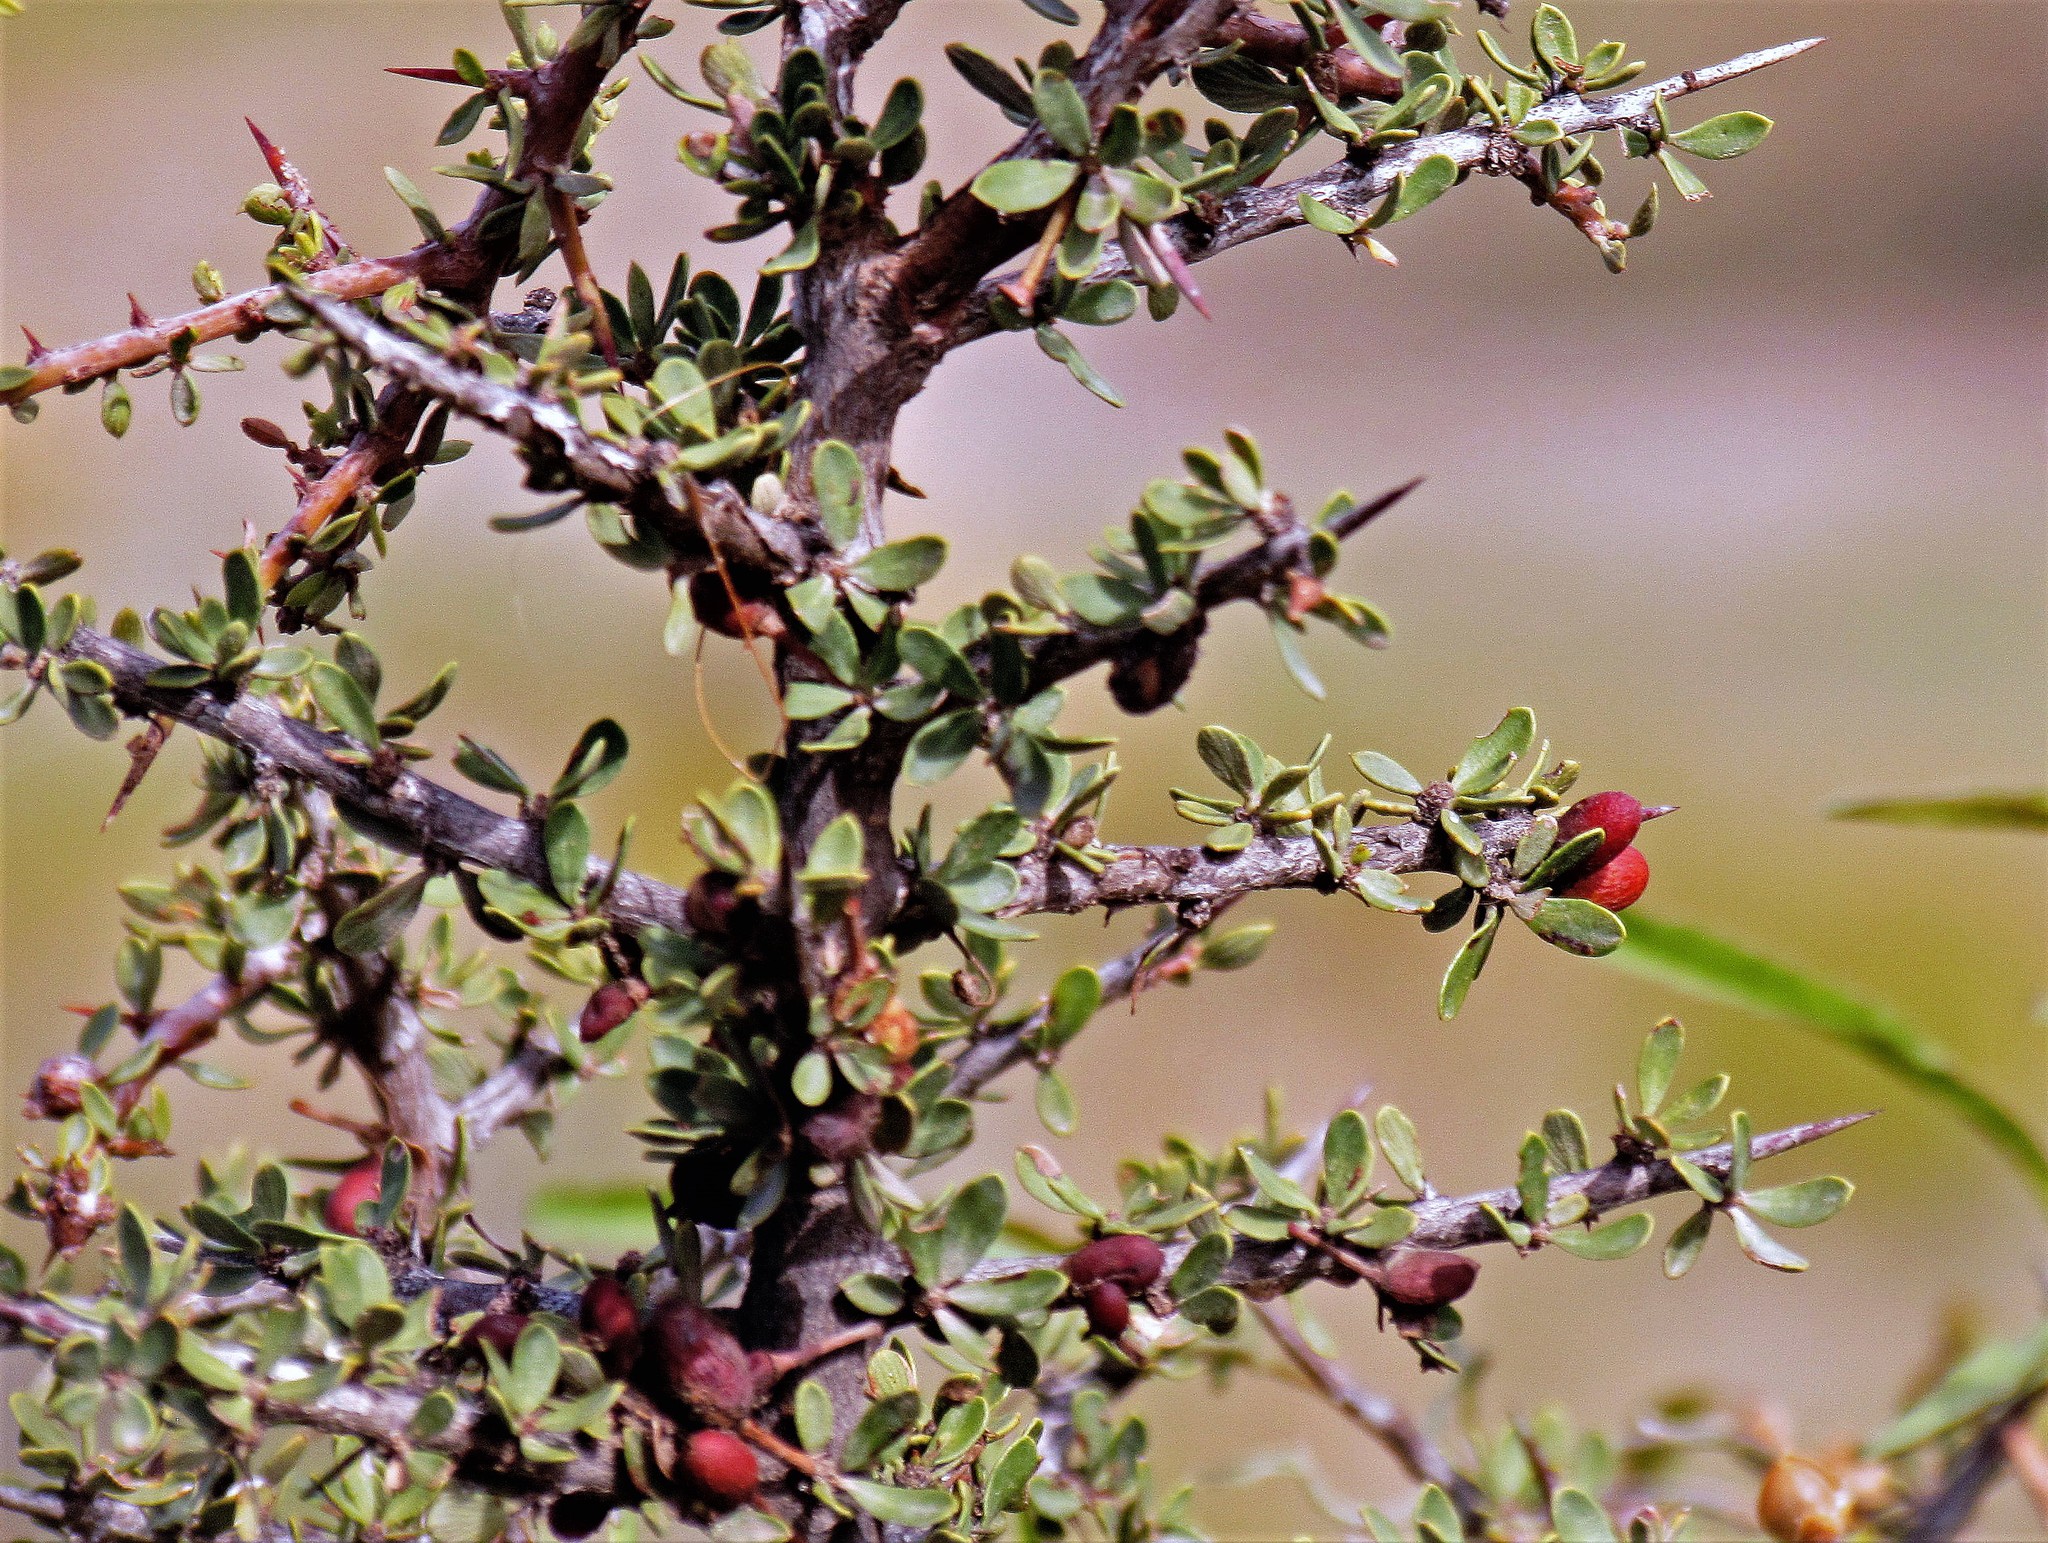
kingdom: Plantae
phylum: Tracheophyta
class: Magnoliopsida
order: Rosales
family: Rhamnaceae
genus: Condalia
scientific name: Condalia microphylla
